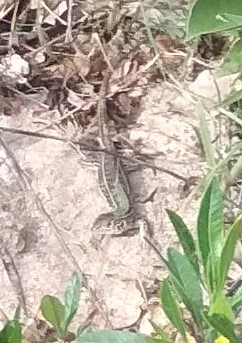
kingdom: Animalia
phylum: Chordata
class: Squamata
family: Teiidae
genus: Teius
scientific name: Teius oculatus
